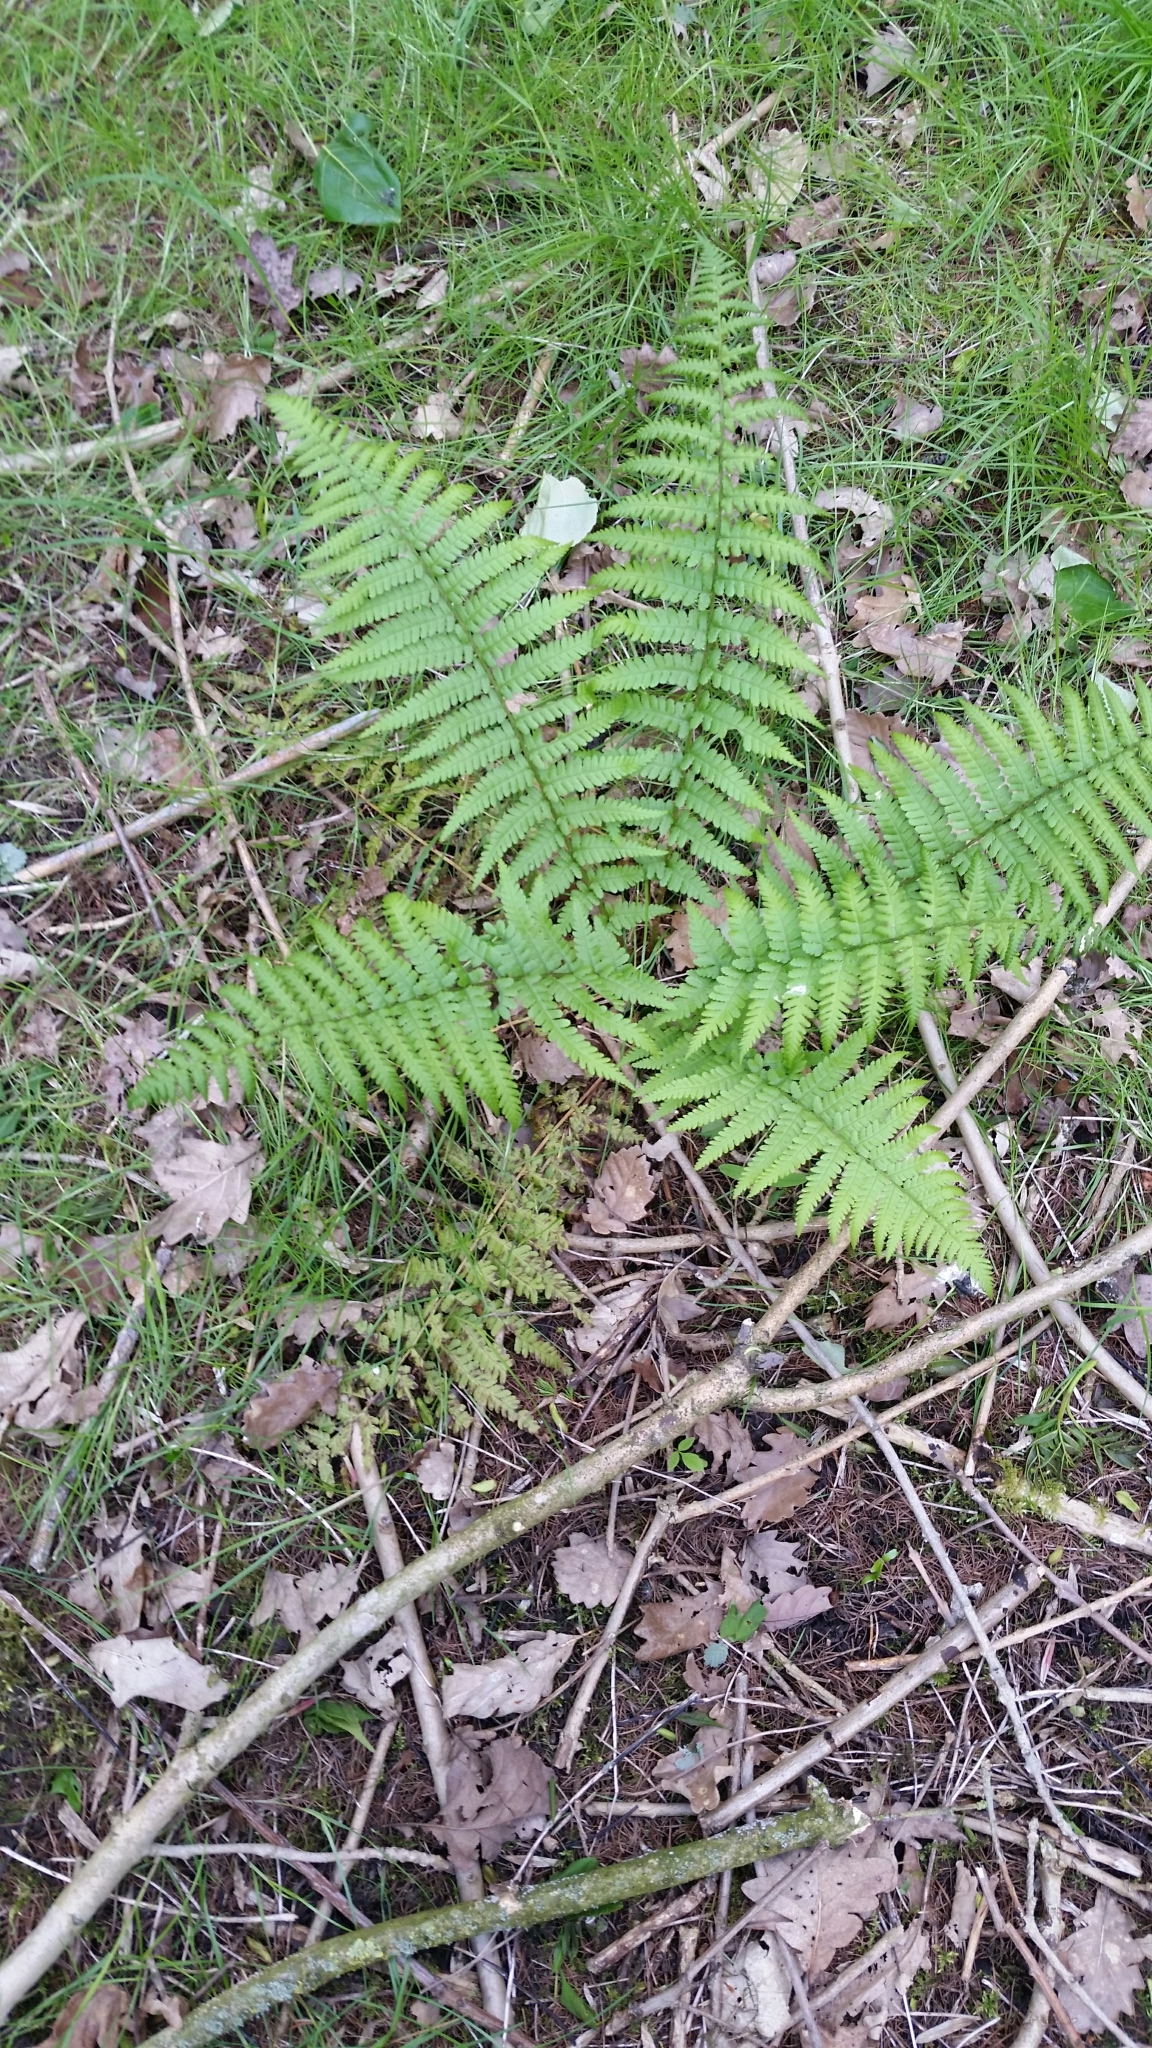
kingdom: Plantae
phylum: Tracheophyta
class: Polypodiopsida
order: Polypodiales
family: Dryopteridaceae
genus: Dryopteris
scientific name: Dryopteris filix-mas
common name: Male fern
